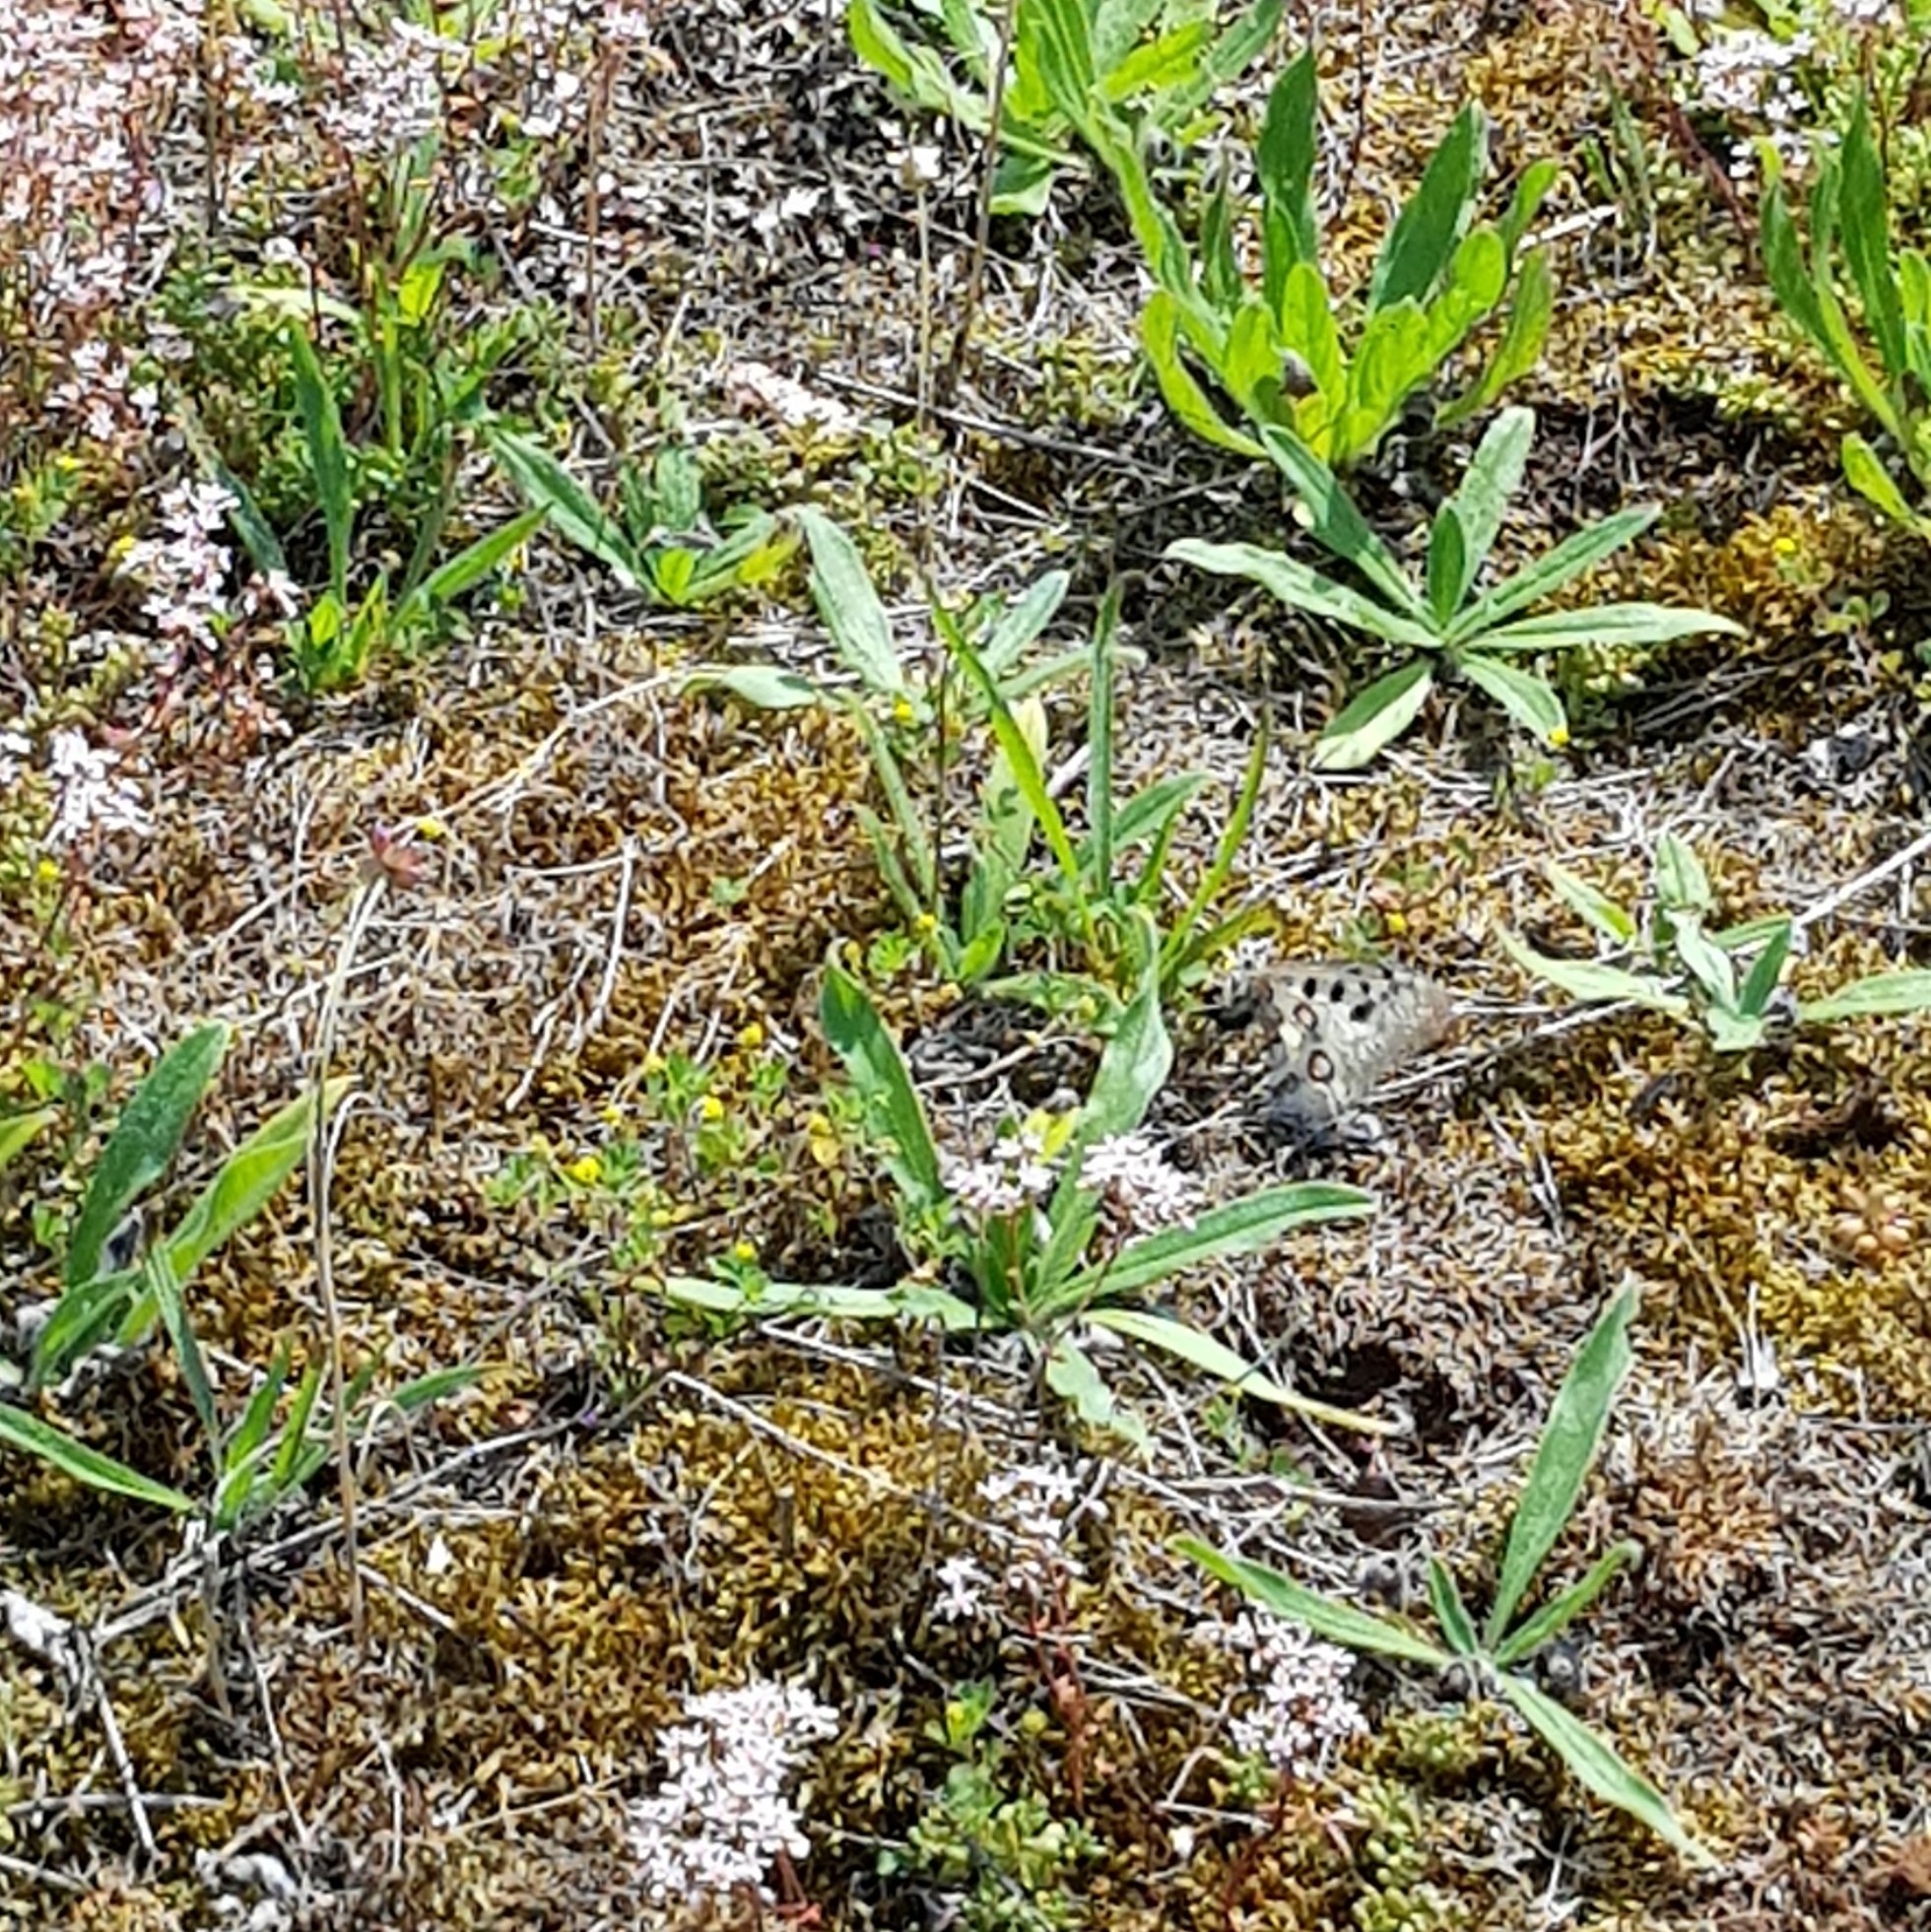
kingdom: Animalia
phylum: Arthropoda
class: Insecta
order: Lepidoptera
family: Papilionidae
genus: Parnassius
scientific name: Parnassius apollo
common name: Apollo
